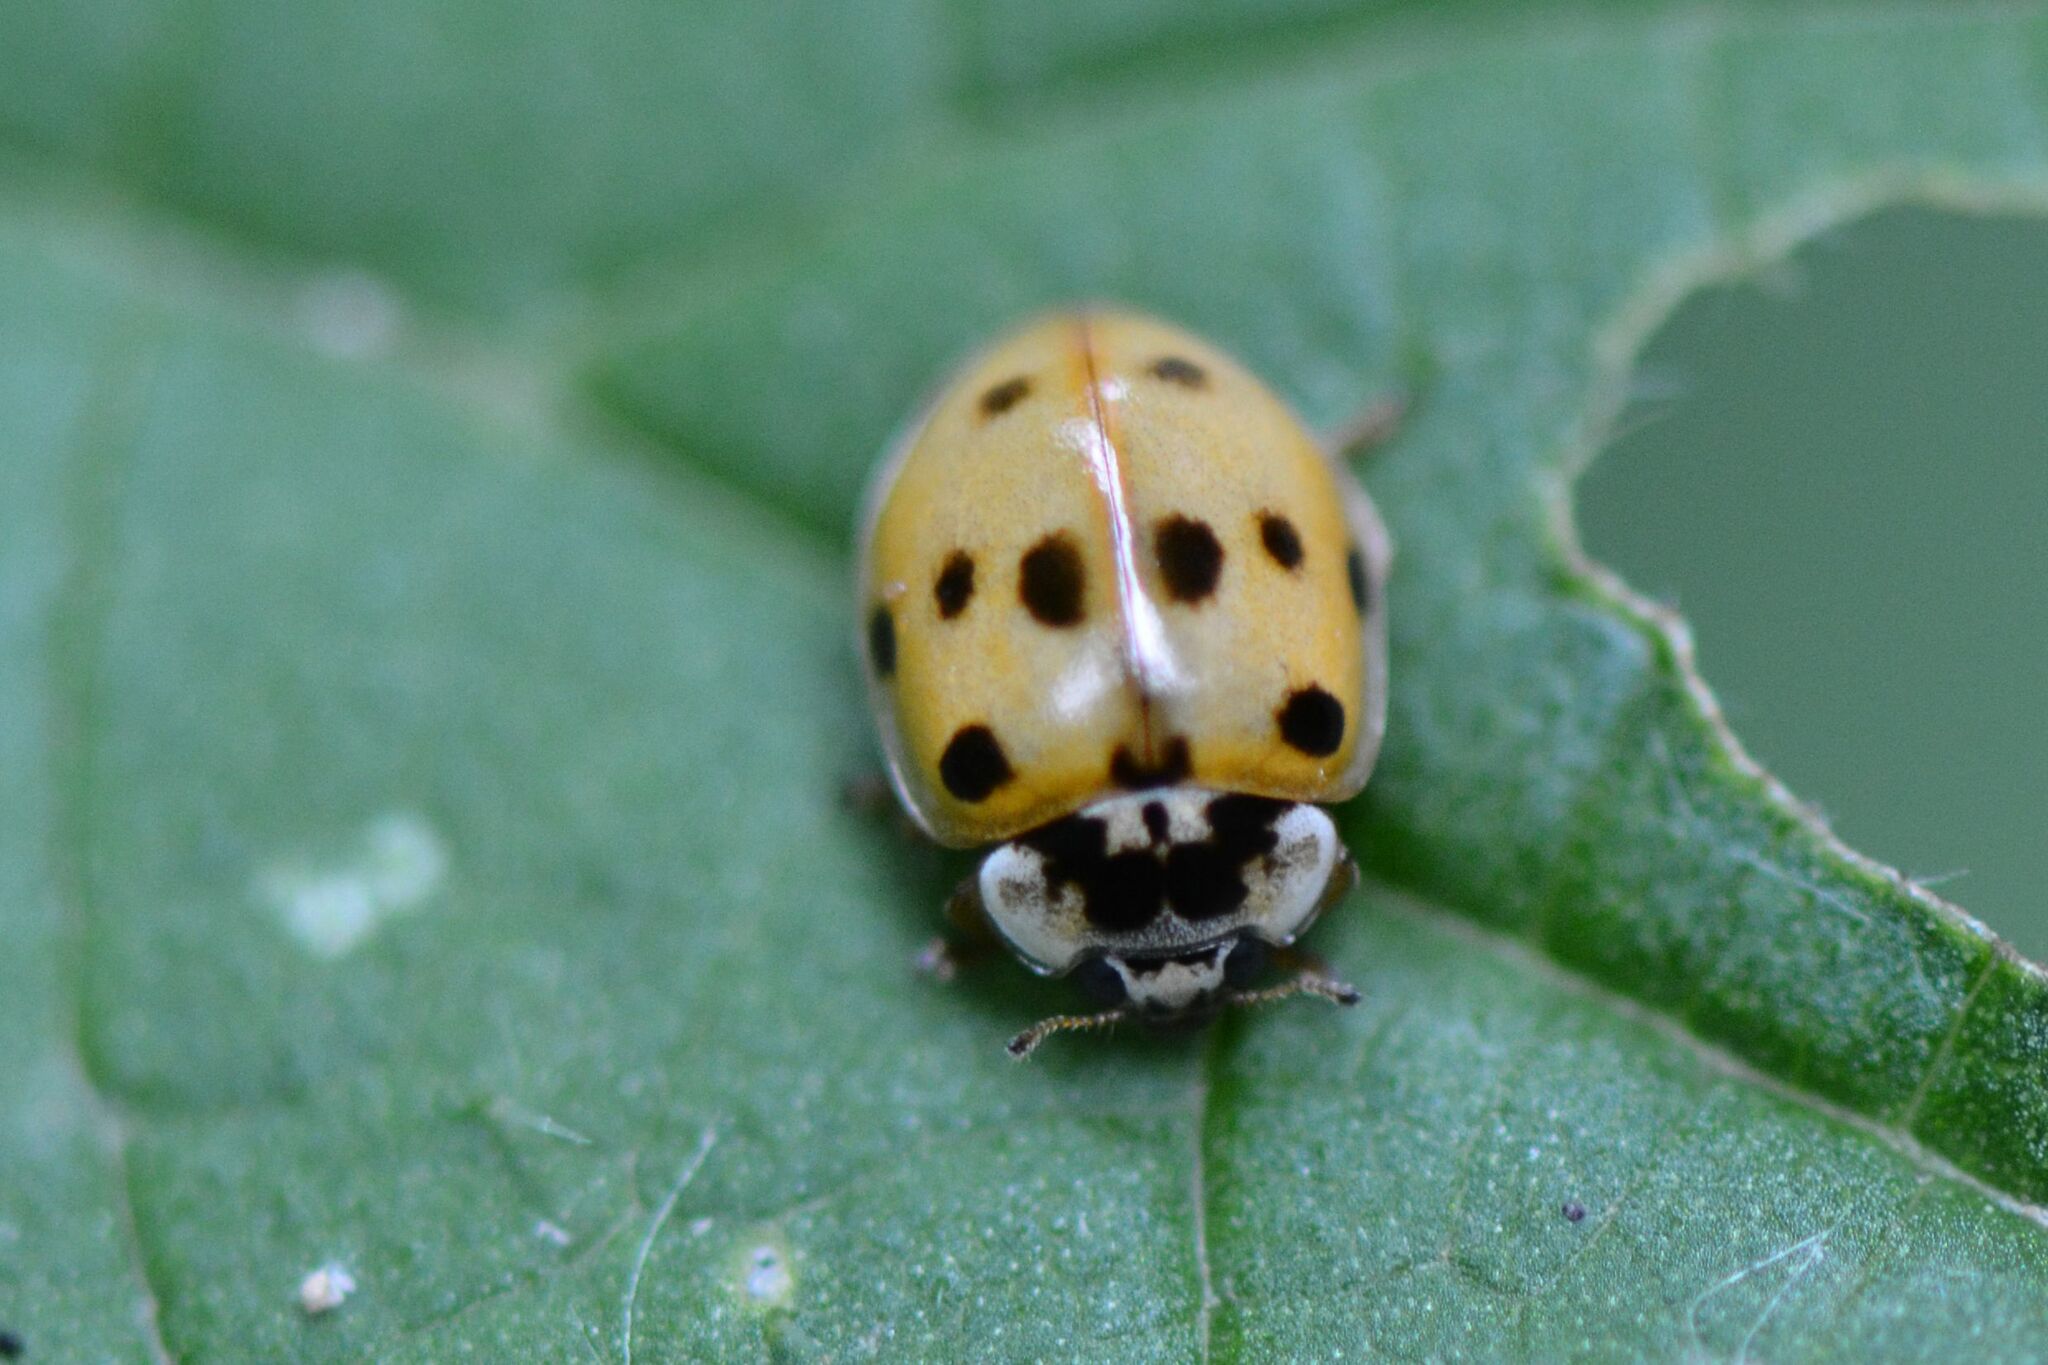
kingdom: Animalia
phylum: Arthropoda
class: Insecta
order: Coleoptera
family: Coccinellidae
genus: Adalia
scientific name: Adalia decempunctata
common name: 10-spot ladybird
